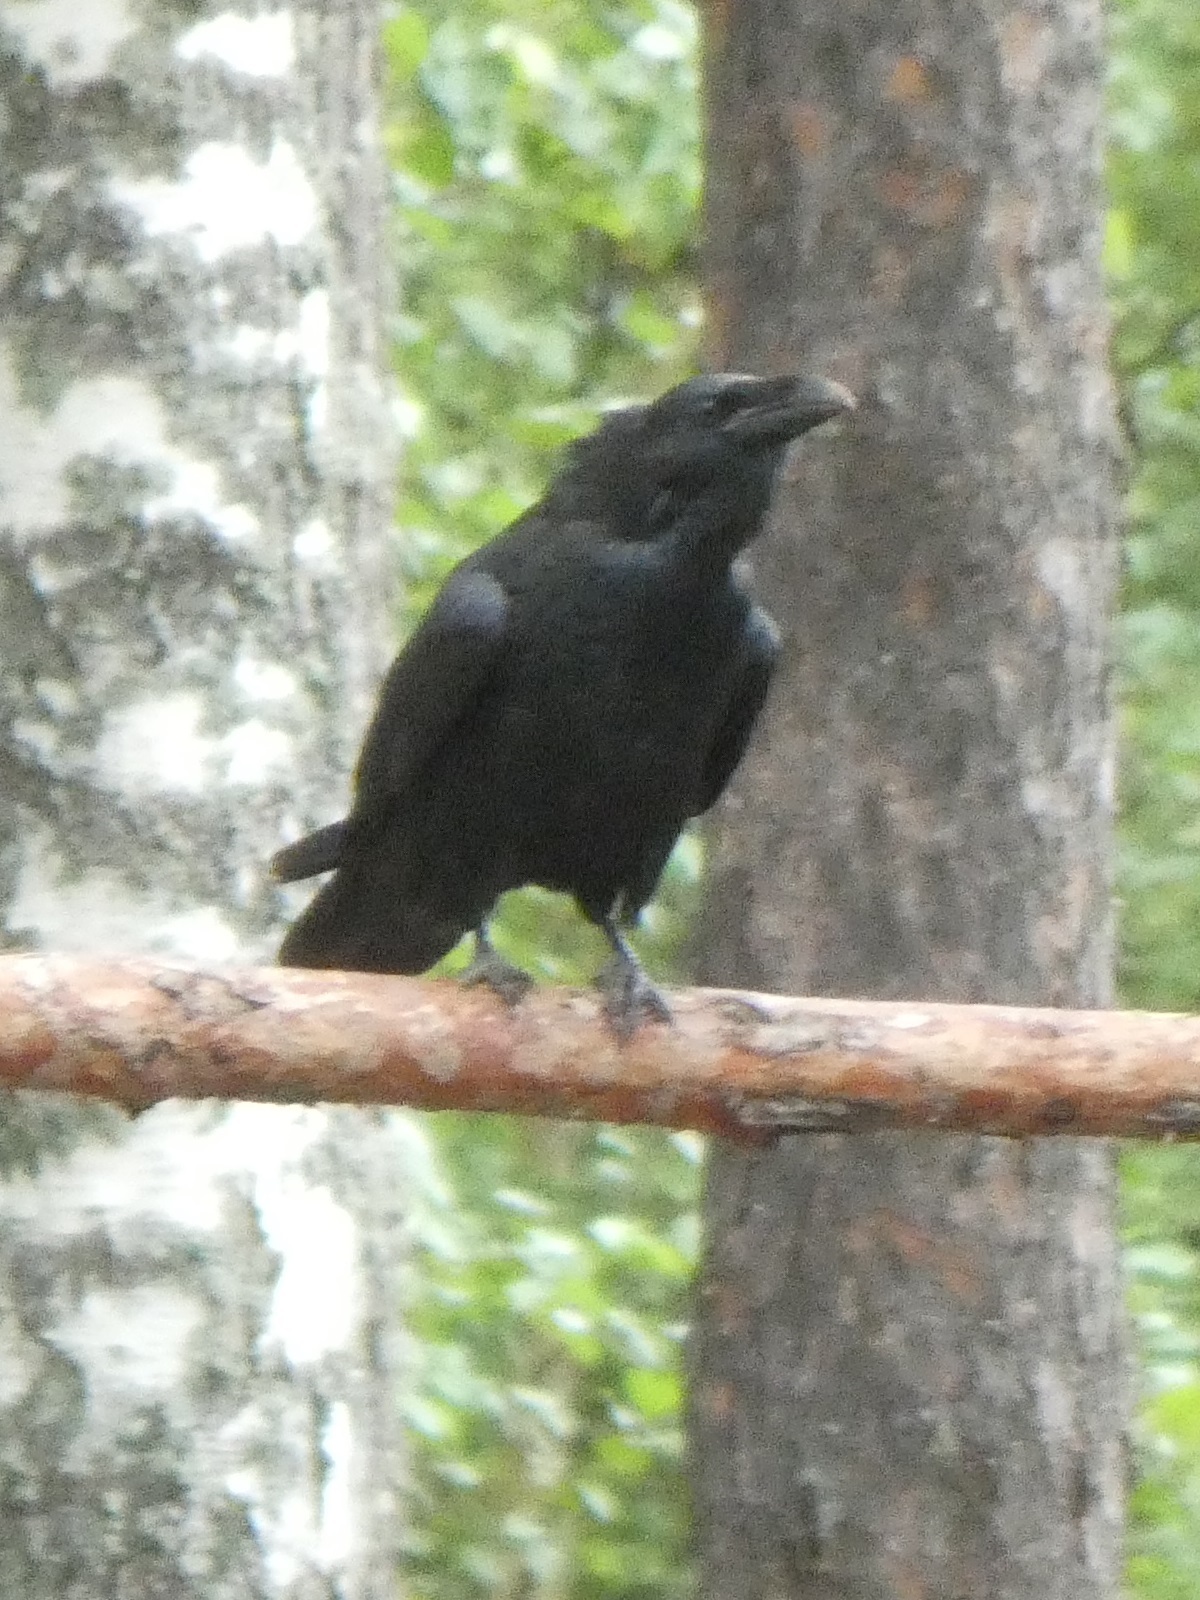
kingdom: Animalia
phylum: Chordata
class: Aves
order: Passeriformes
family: Corvidae
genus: Corvus
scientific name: Corvus corax
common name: Common raven
